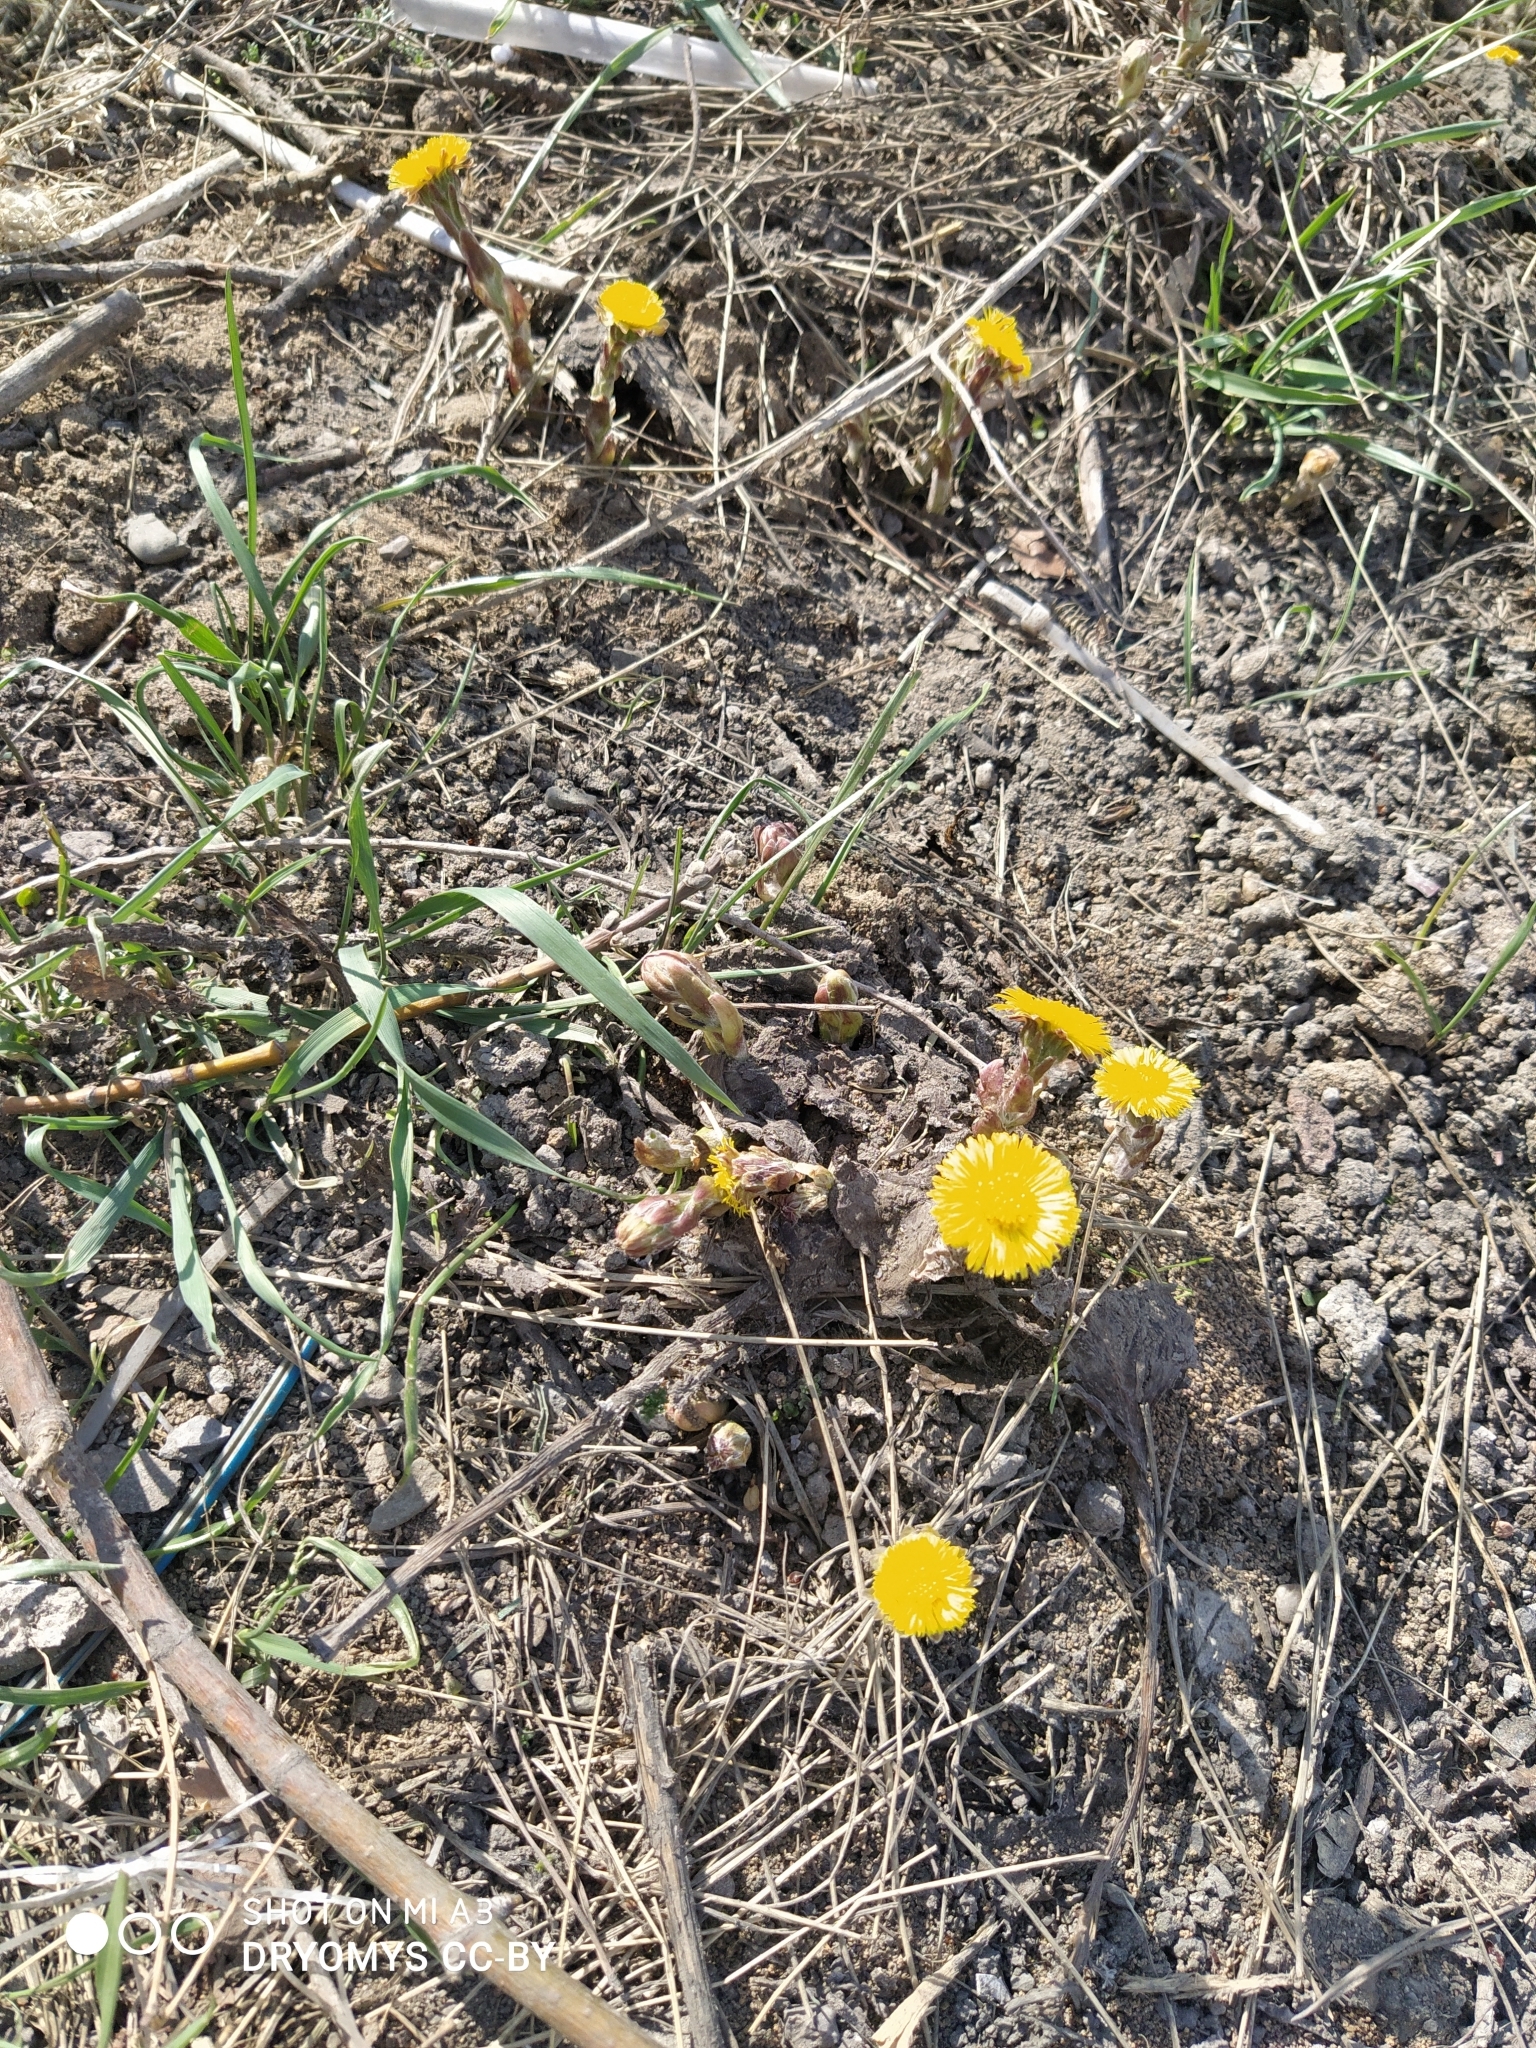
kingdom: Plantae
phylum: Tracheophyta
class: Magnoliopsida
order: Asterales
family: Asteraceae
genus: Tussilago
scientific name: Tussilago farfara
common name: Coltsfoot
